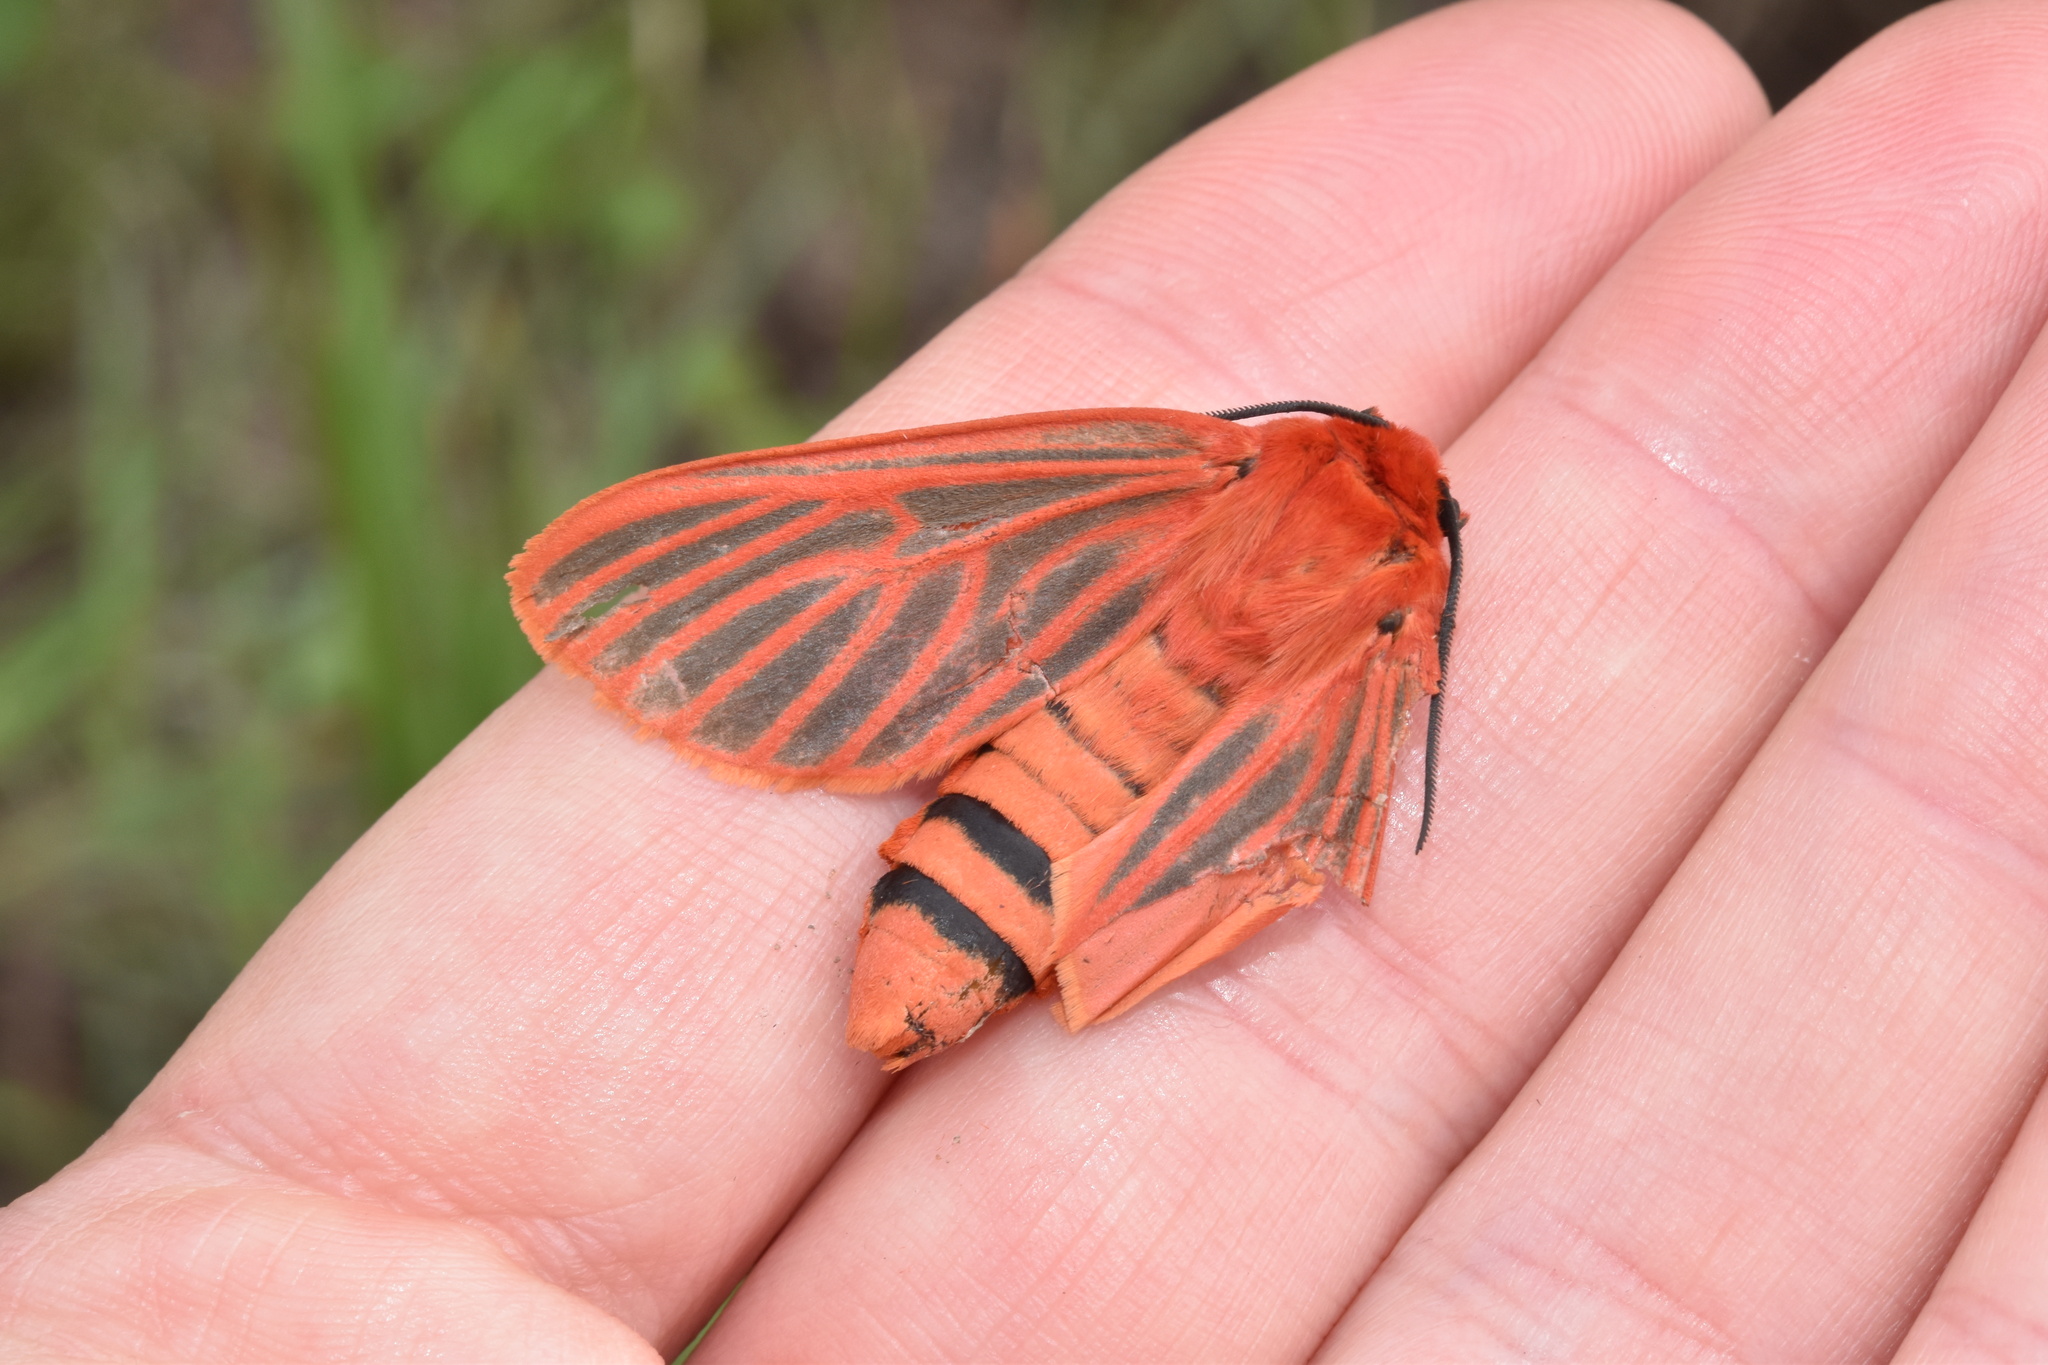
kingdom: Animalia
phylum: Arthropoda
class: Insecta
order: Lepidoptera
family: Erebidae
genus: Automolis
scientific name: Automolis lateritia
